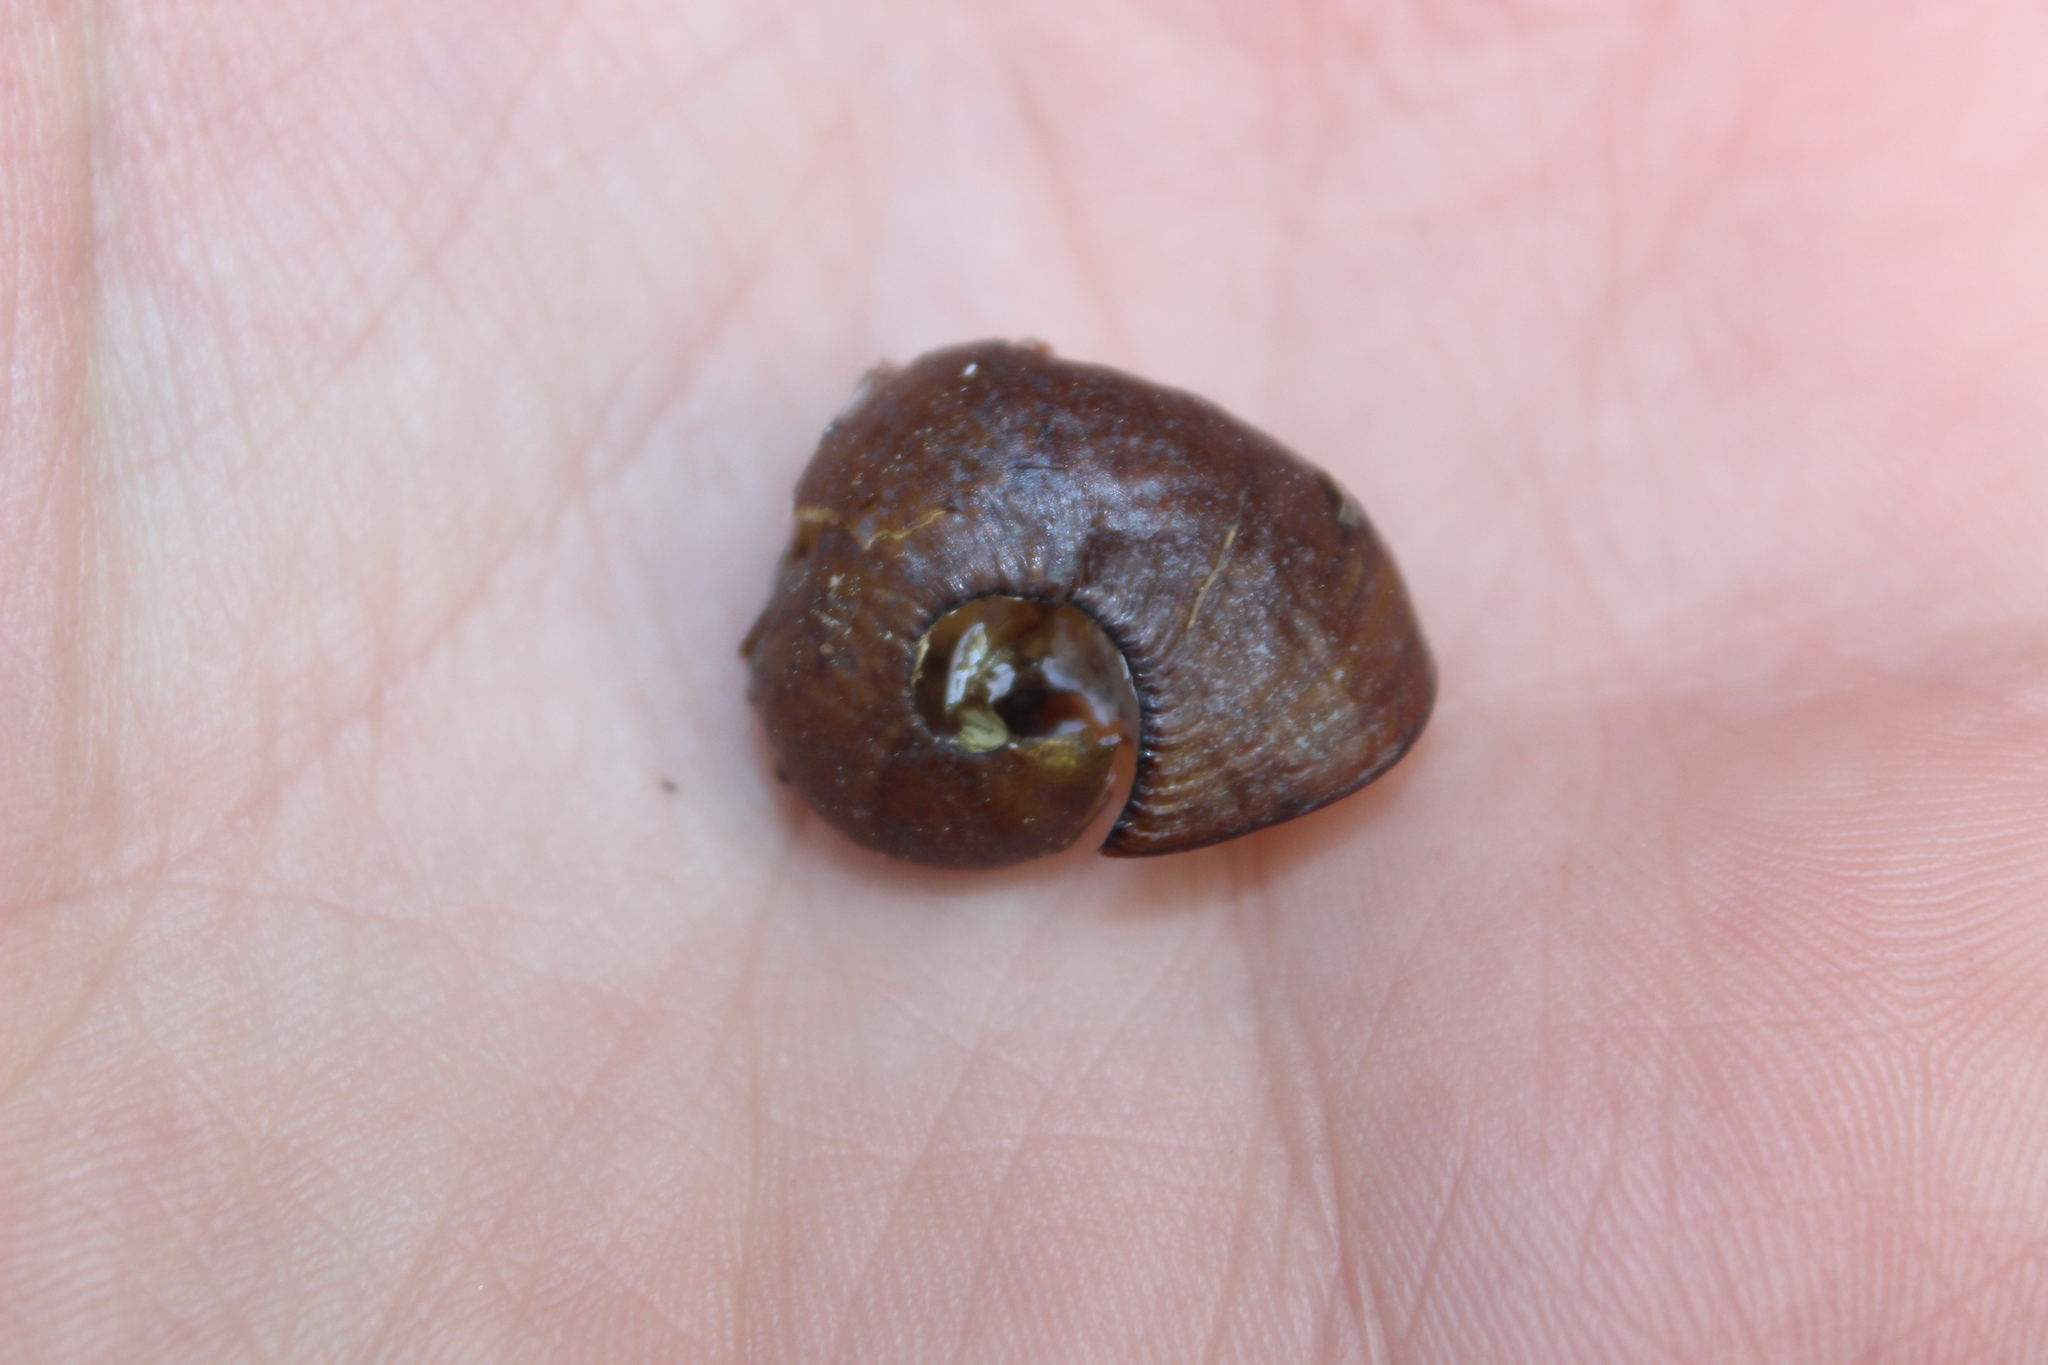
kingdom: Animalia
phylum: Mollusca
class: Gastropoda
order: Stylommatophora
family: Rhytididae
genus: Wainuia
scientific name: Wainuia urnula
